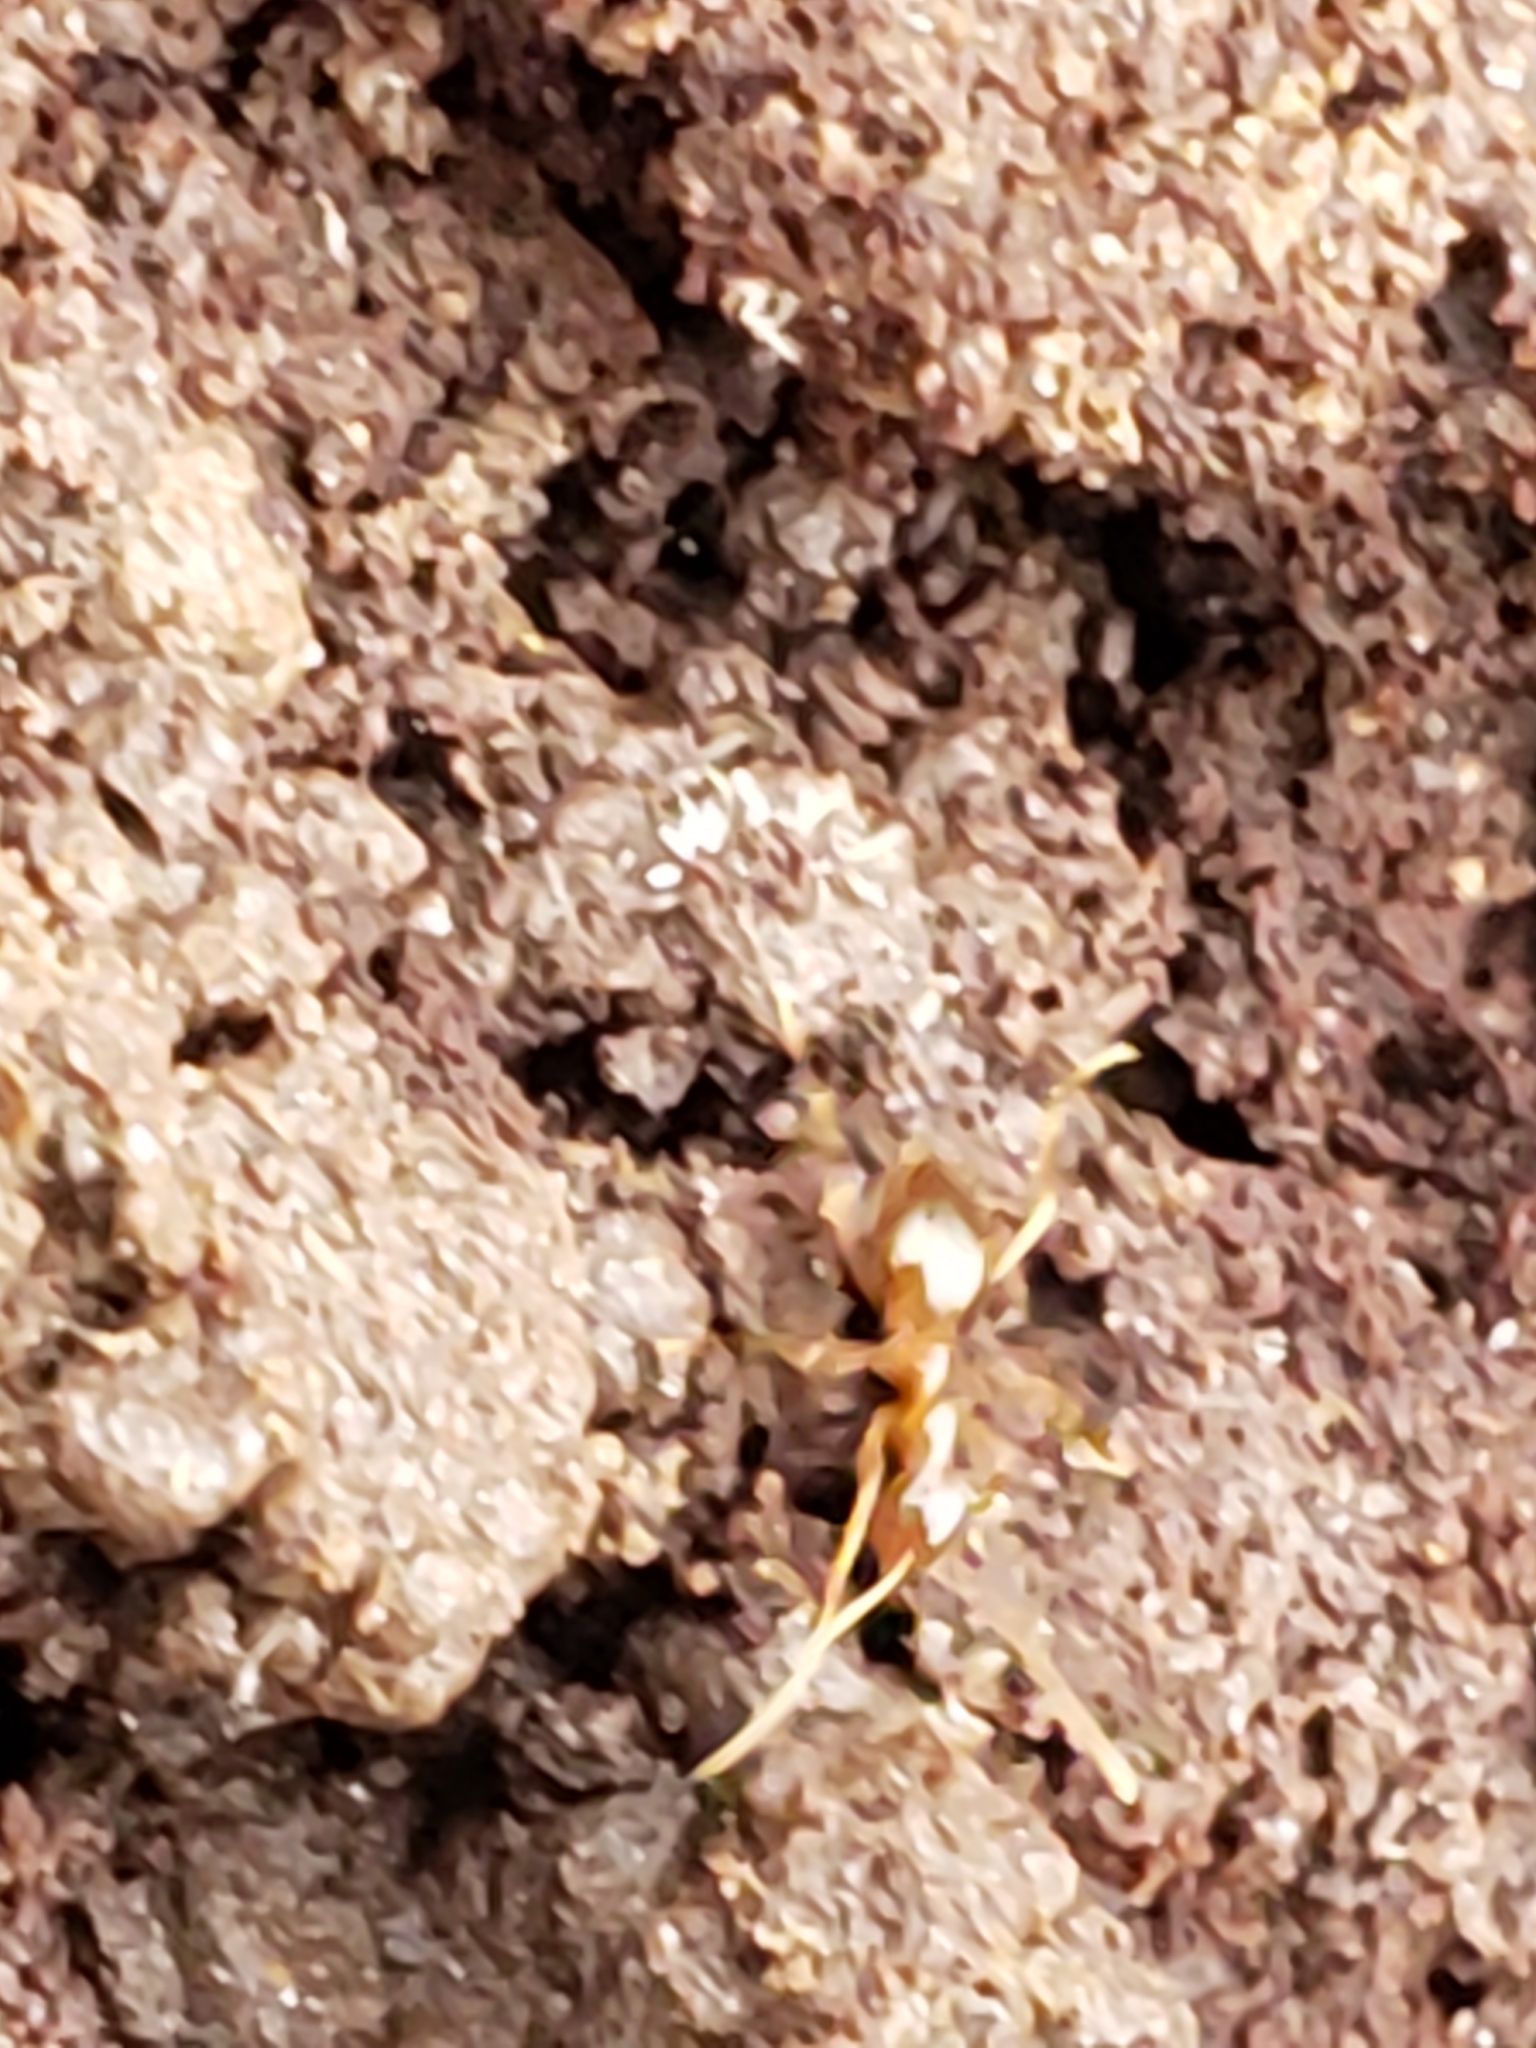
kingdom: Animalia
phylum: Arthropoda
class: Insecta
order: Hymenoptera
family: Formicidae
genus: Prenolepis
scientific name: Prenolepis imparis
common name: Small honey ant
